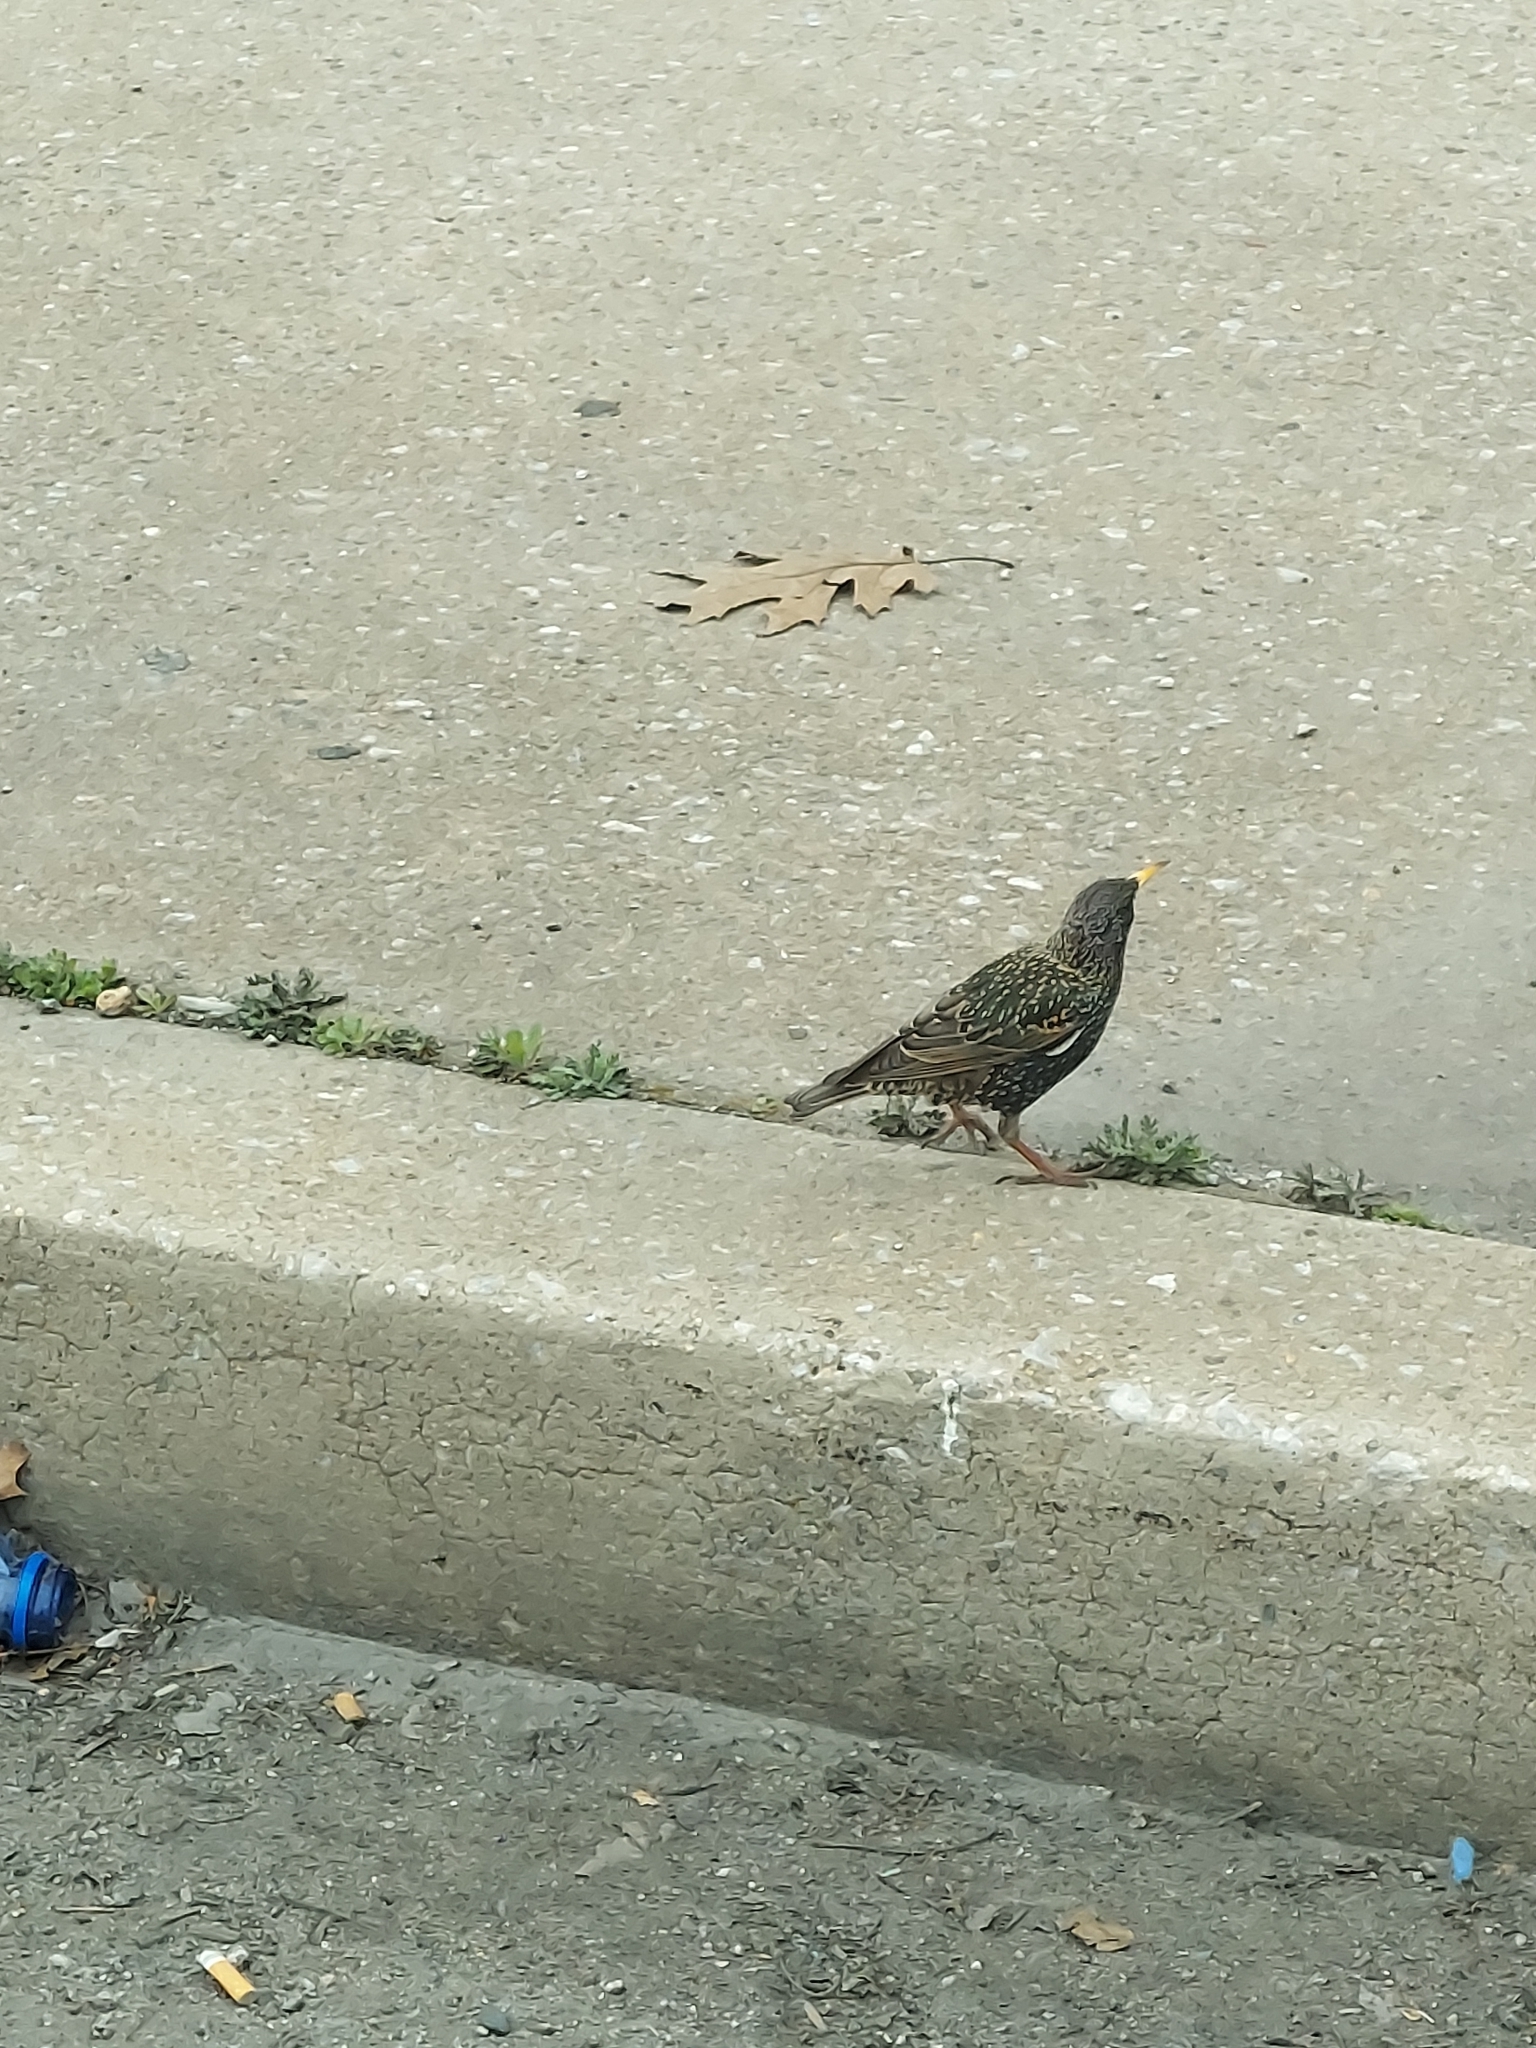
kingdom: Animalia
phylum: Chordata
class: Aves
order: Passeriformes
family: Sturnidae
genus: Sturnus
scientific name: Sturnus vulgaris
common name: Common starling
